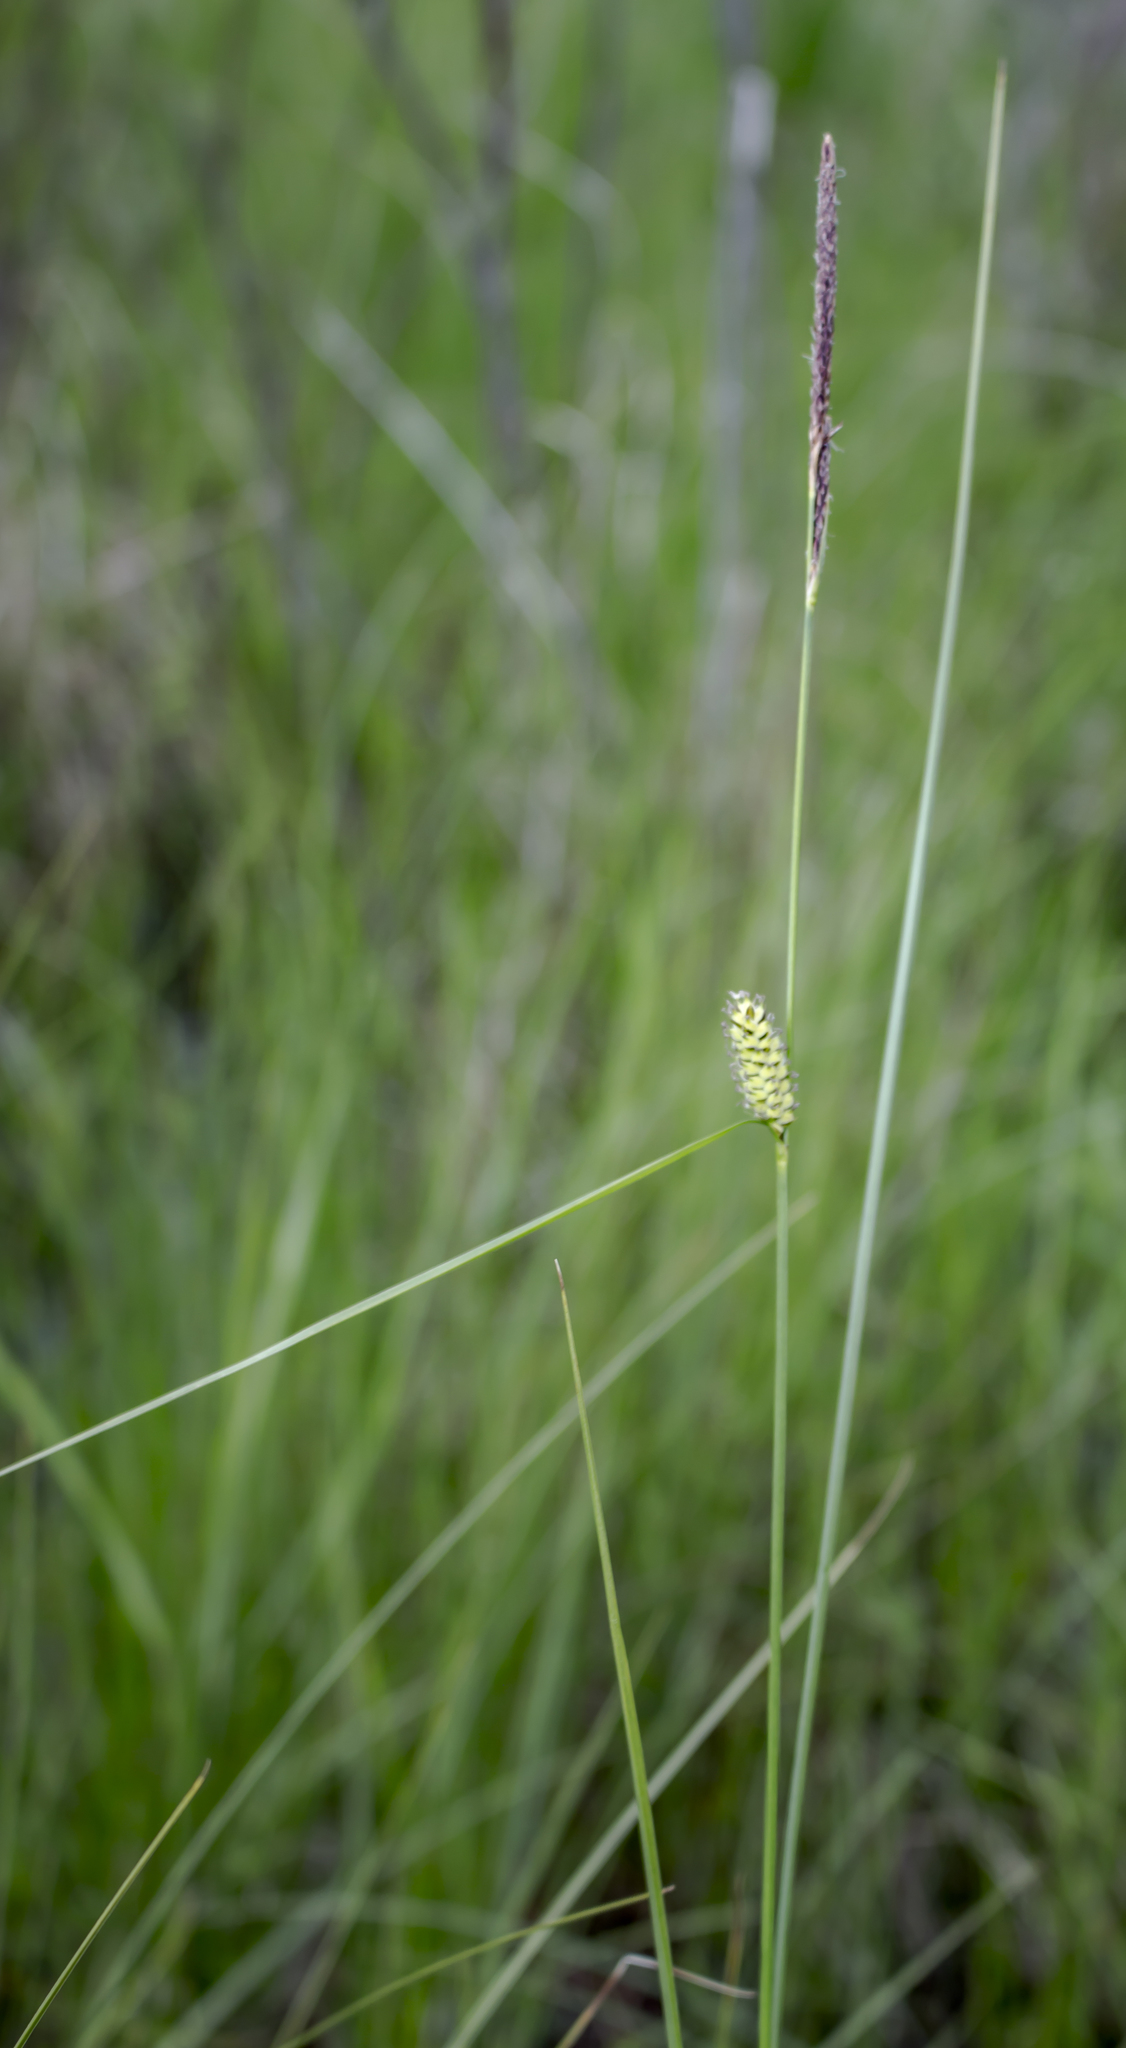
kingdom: Plantae
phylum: Tracheophyta
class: Liliopsida
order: Poales
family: Cyperaceae
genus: Carex
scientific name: Carex pellita
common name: Woolly sedge
